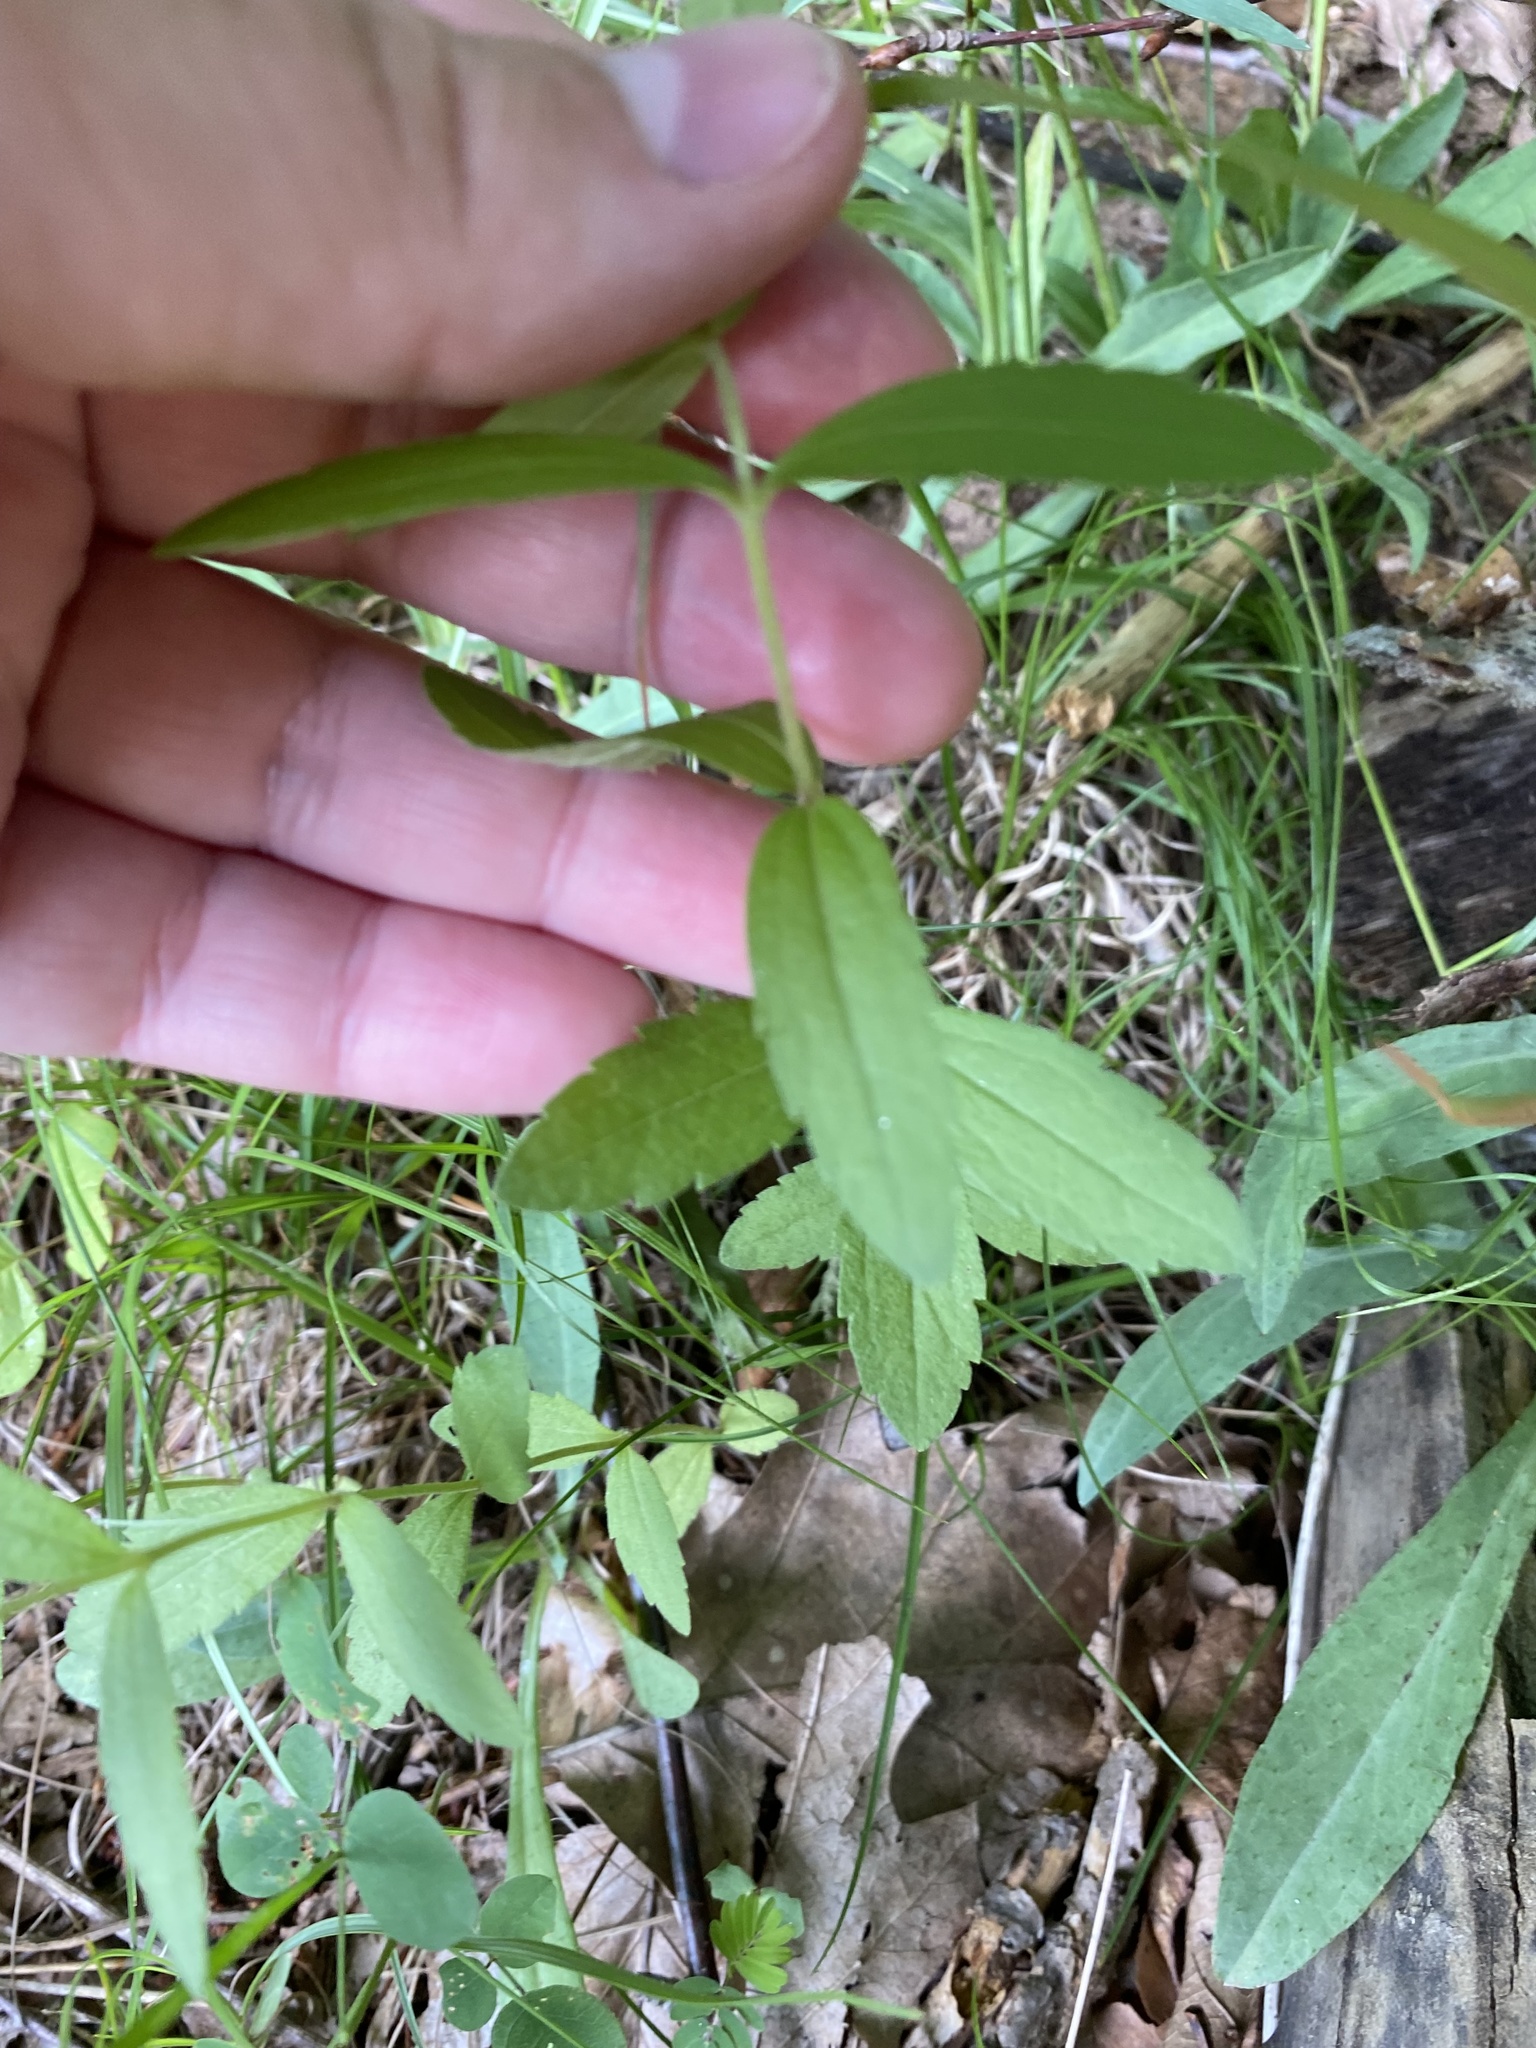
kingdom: Plantae
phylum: Tracheophyta
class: Magnoliopsida
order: Asterales
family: Asteraceae
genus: Eupatorium
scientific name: Eupatorium subvenosum
